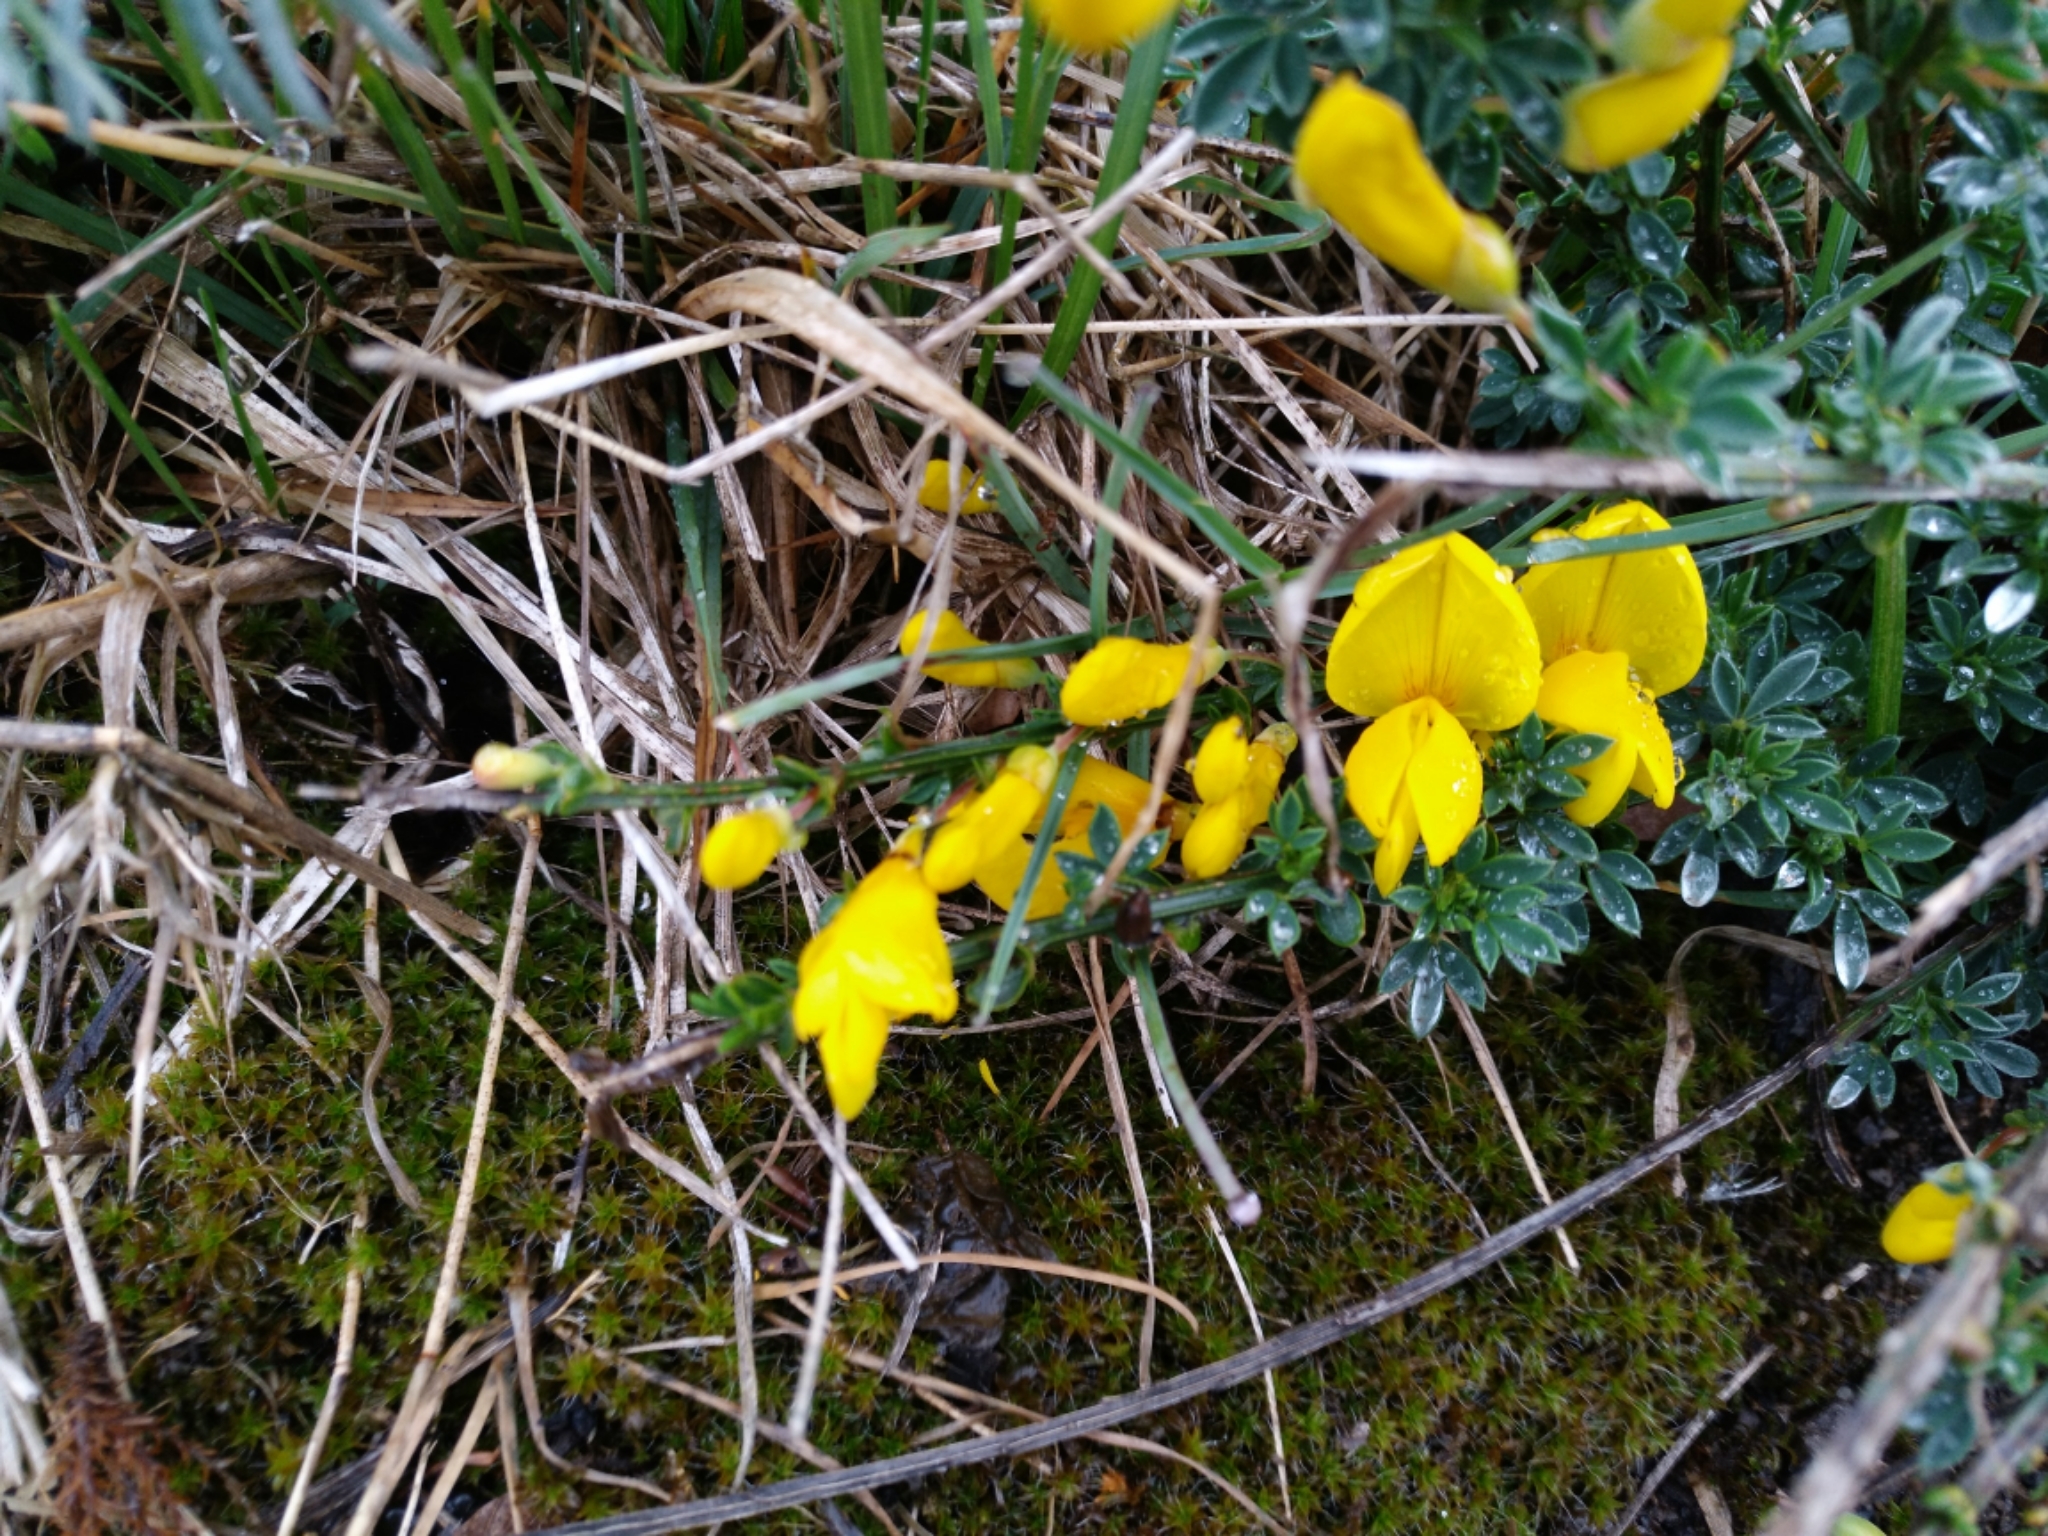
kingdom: Plantae
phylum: Tracheophyta
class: Magnoliopsida
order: Fabales
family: Fabaceae
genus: Cytisus
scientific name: Cytisus scoparius
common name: Scotch broom
